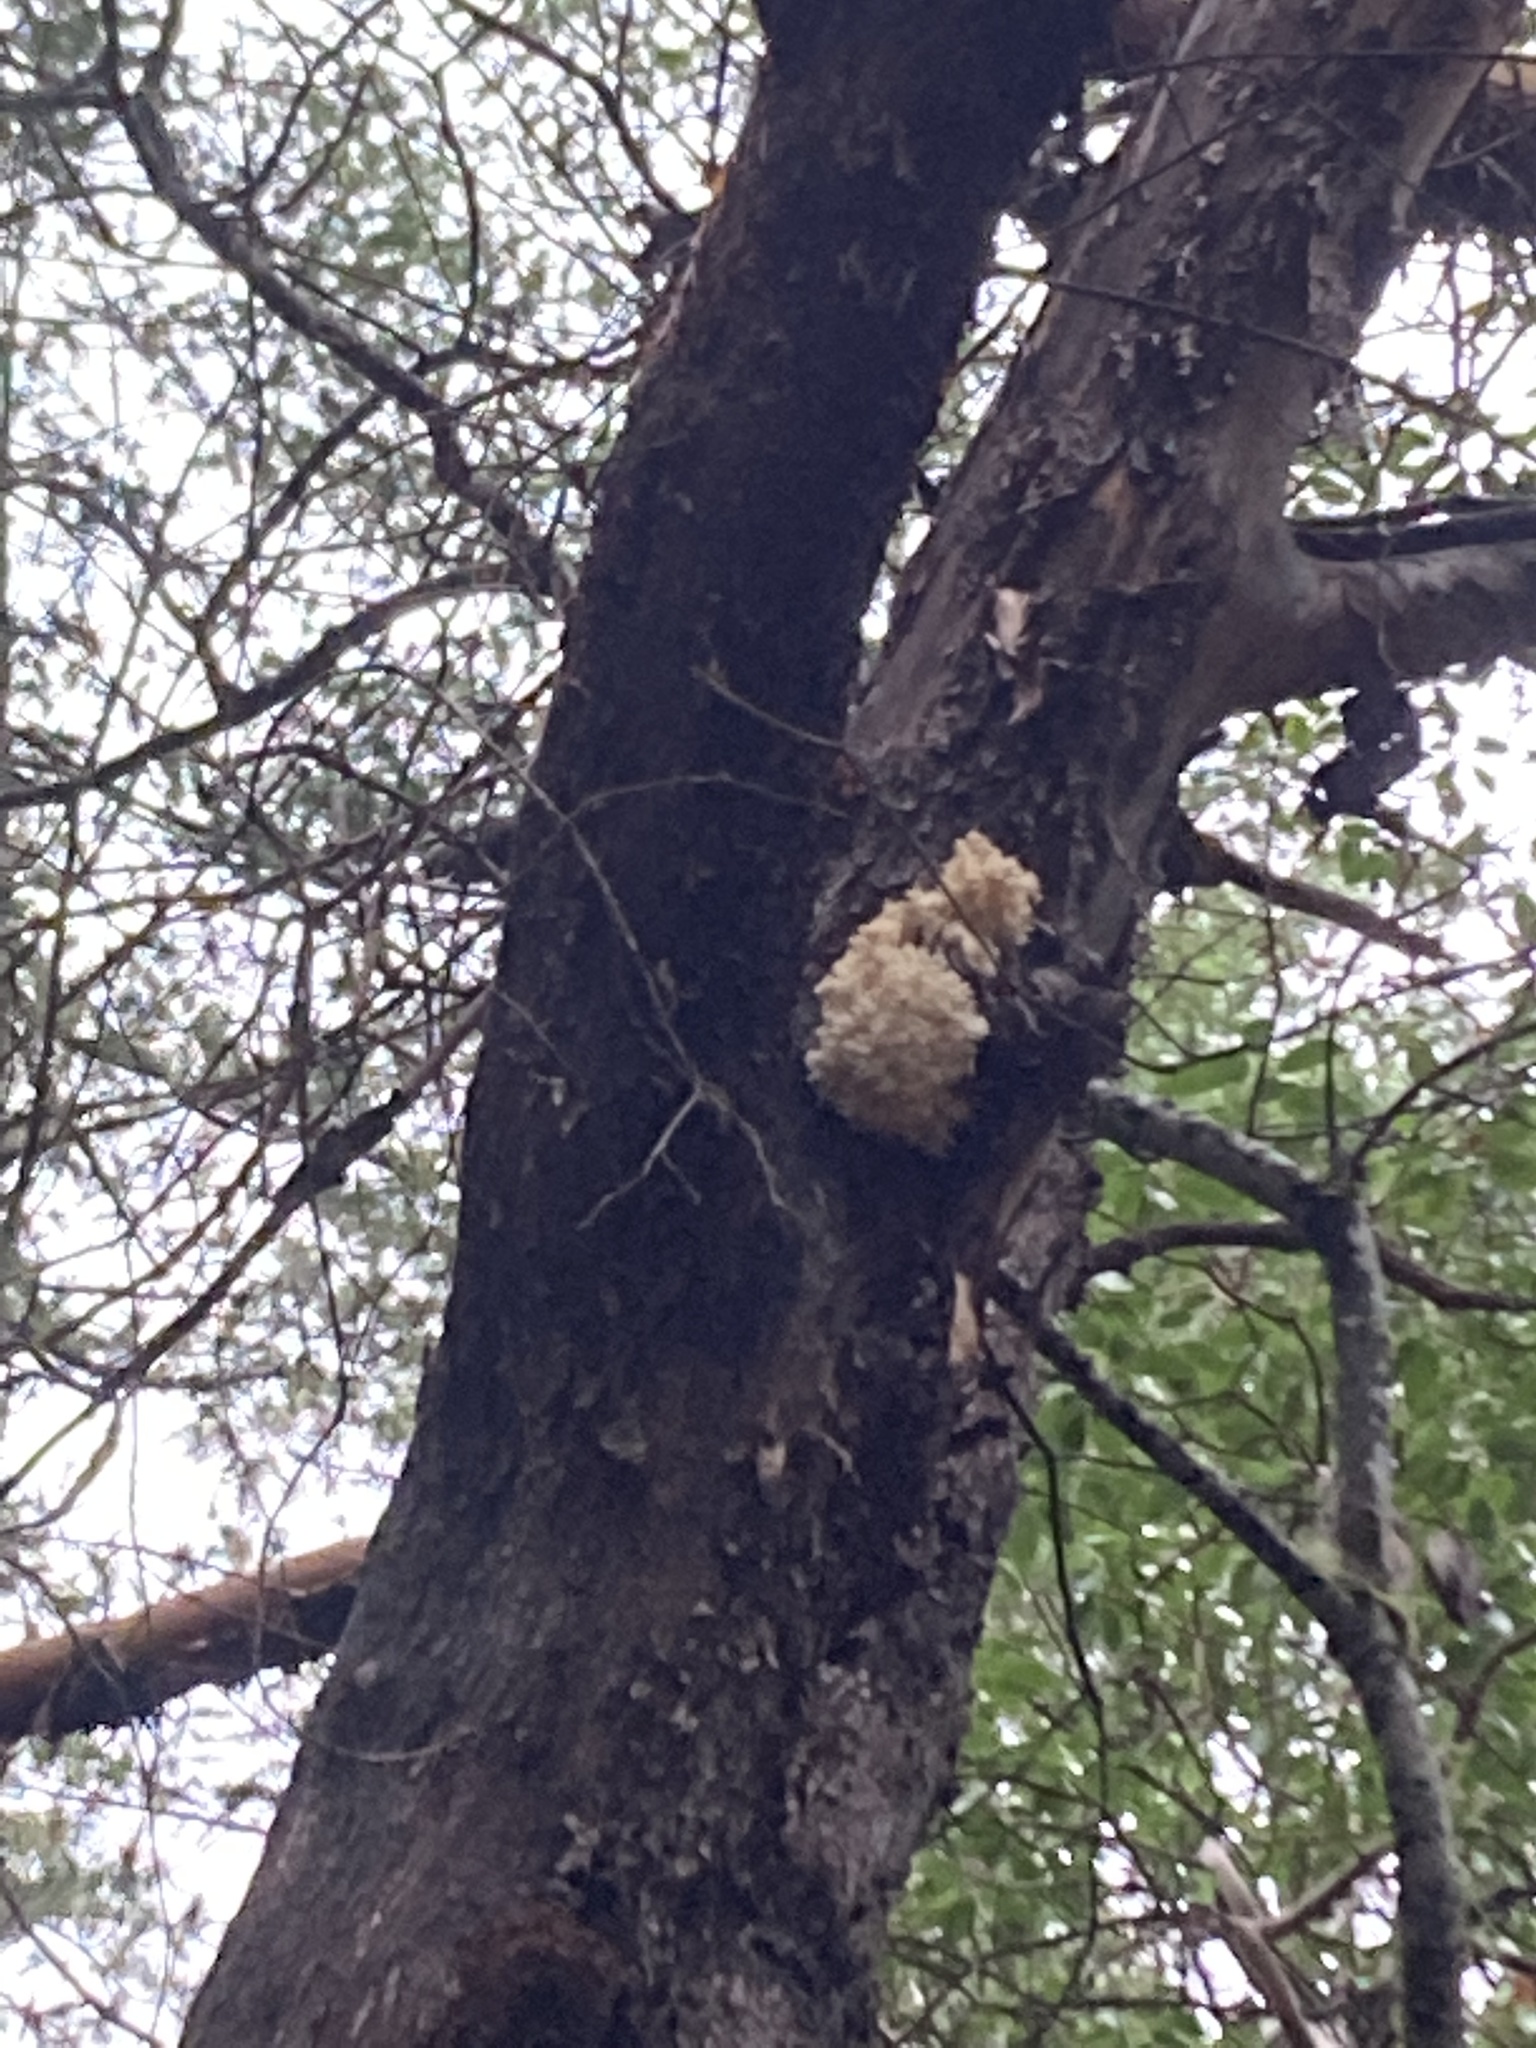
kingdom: Fungi
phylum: Basidiomycota
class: Agaricomycetes
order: Russulales
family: Hericiaceae
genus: Hericium
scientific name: Hericium coralloides
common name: Coral tooth
